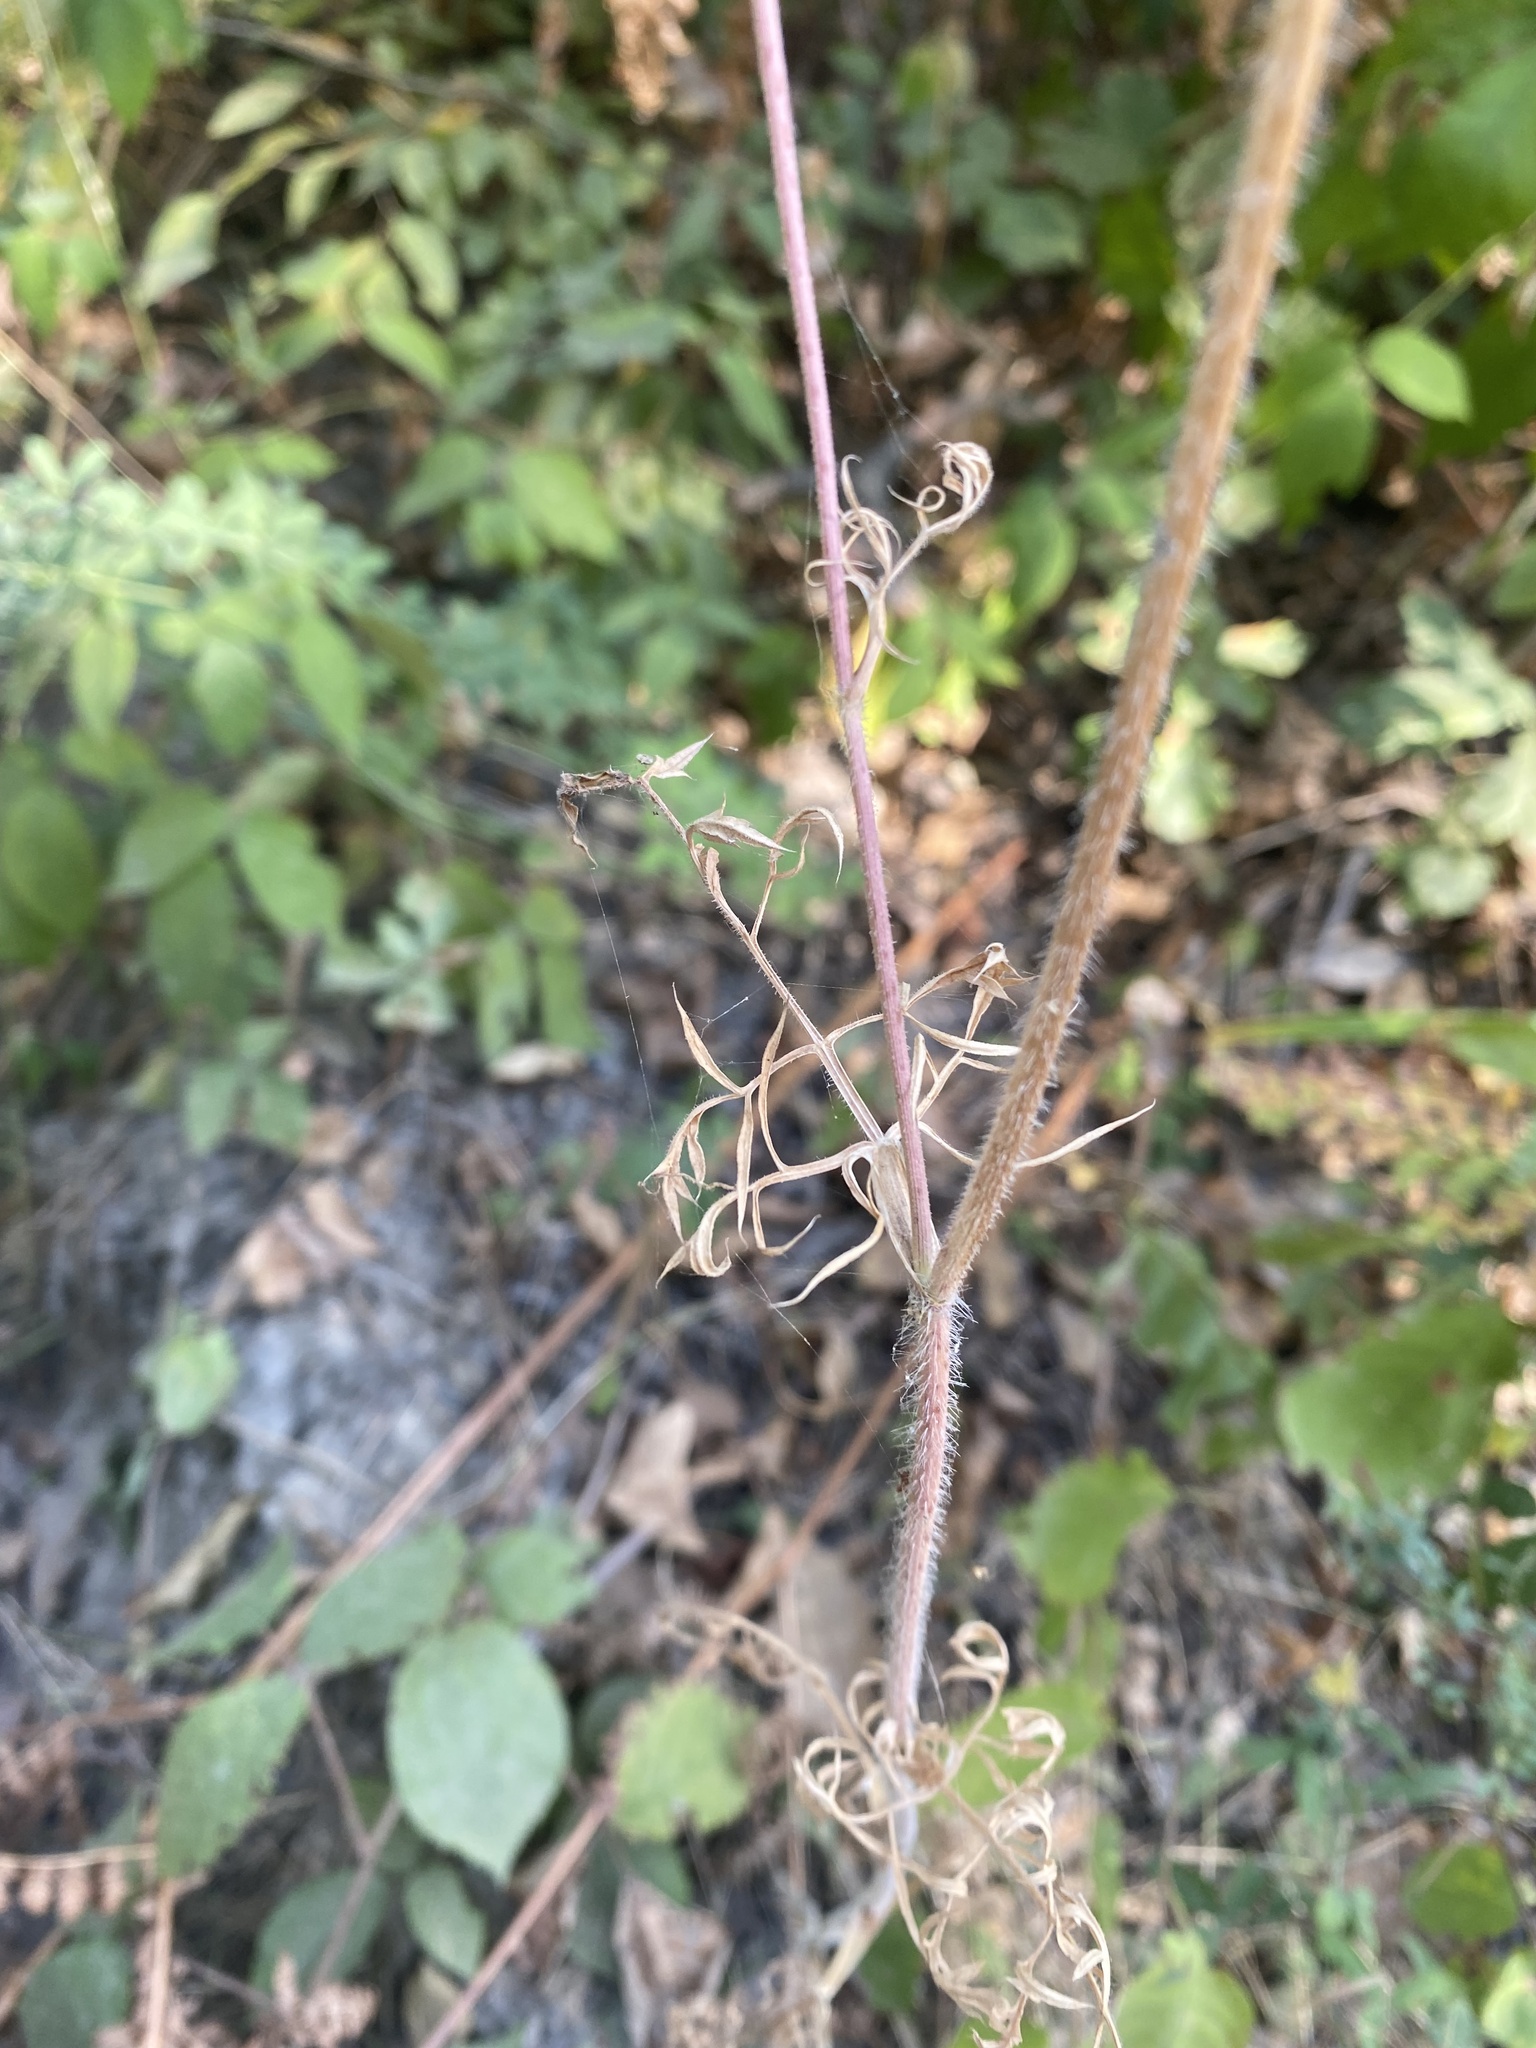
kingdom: Plantae
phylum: Tracheophyta
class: Magnoliopsida
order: Apiales
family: Apiaceae
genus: Daucus
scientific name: Daucus carota
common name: Wild carrot
